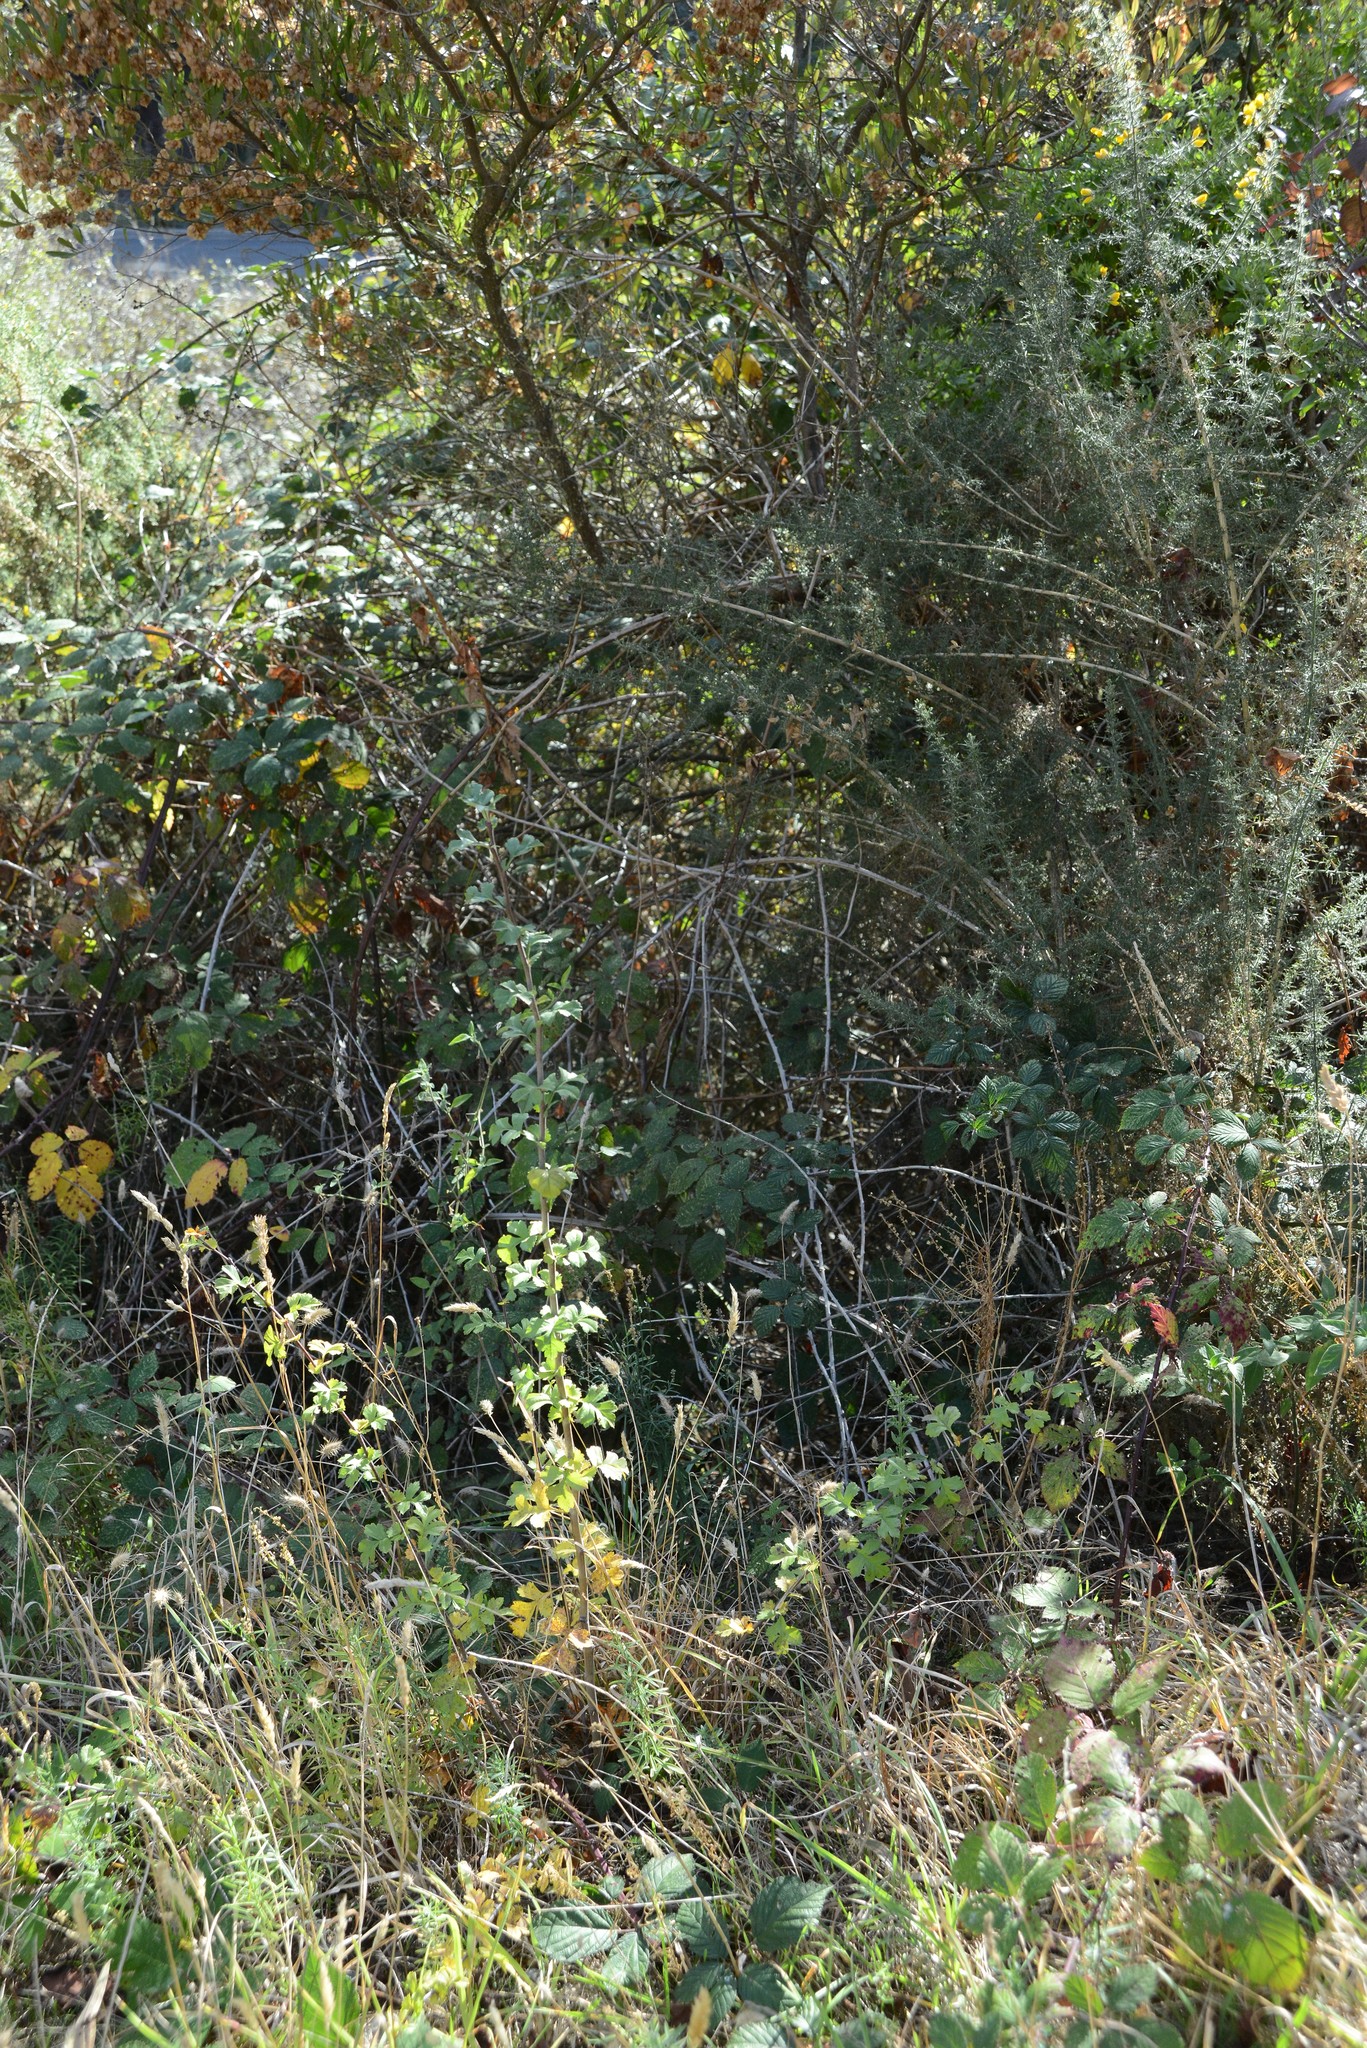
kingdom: Plantae
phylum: Tracheophyta
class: Magnoliopsida
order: Rosales
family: Rosaceae
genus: Crataegus
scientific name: Crataegus monogyna
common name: Hawthorn
